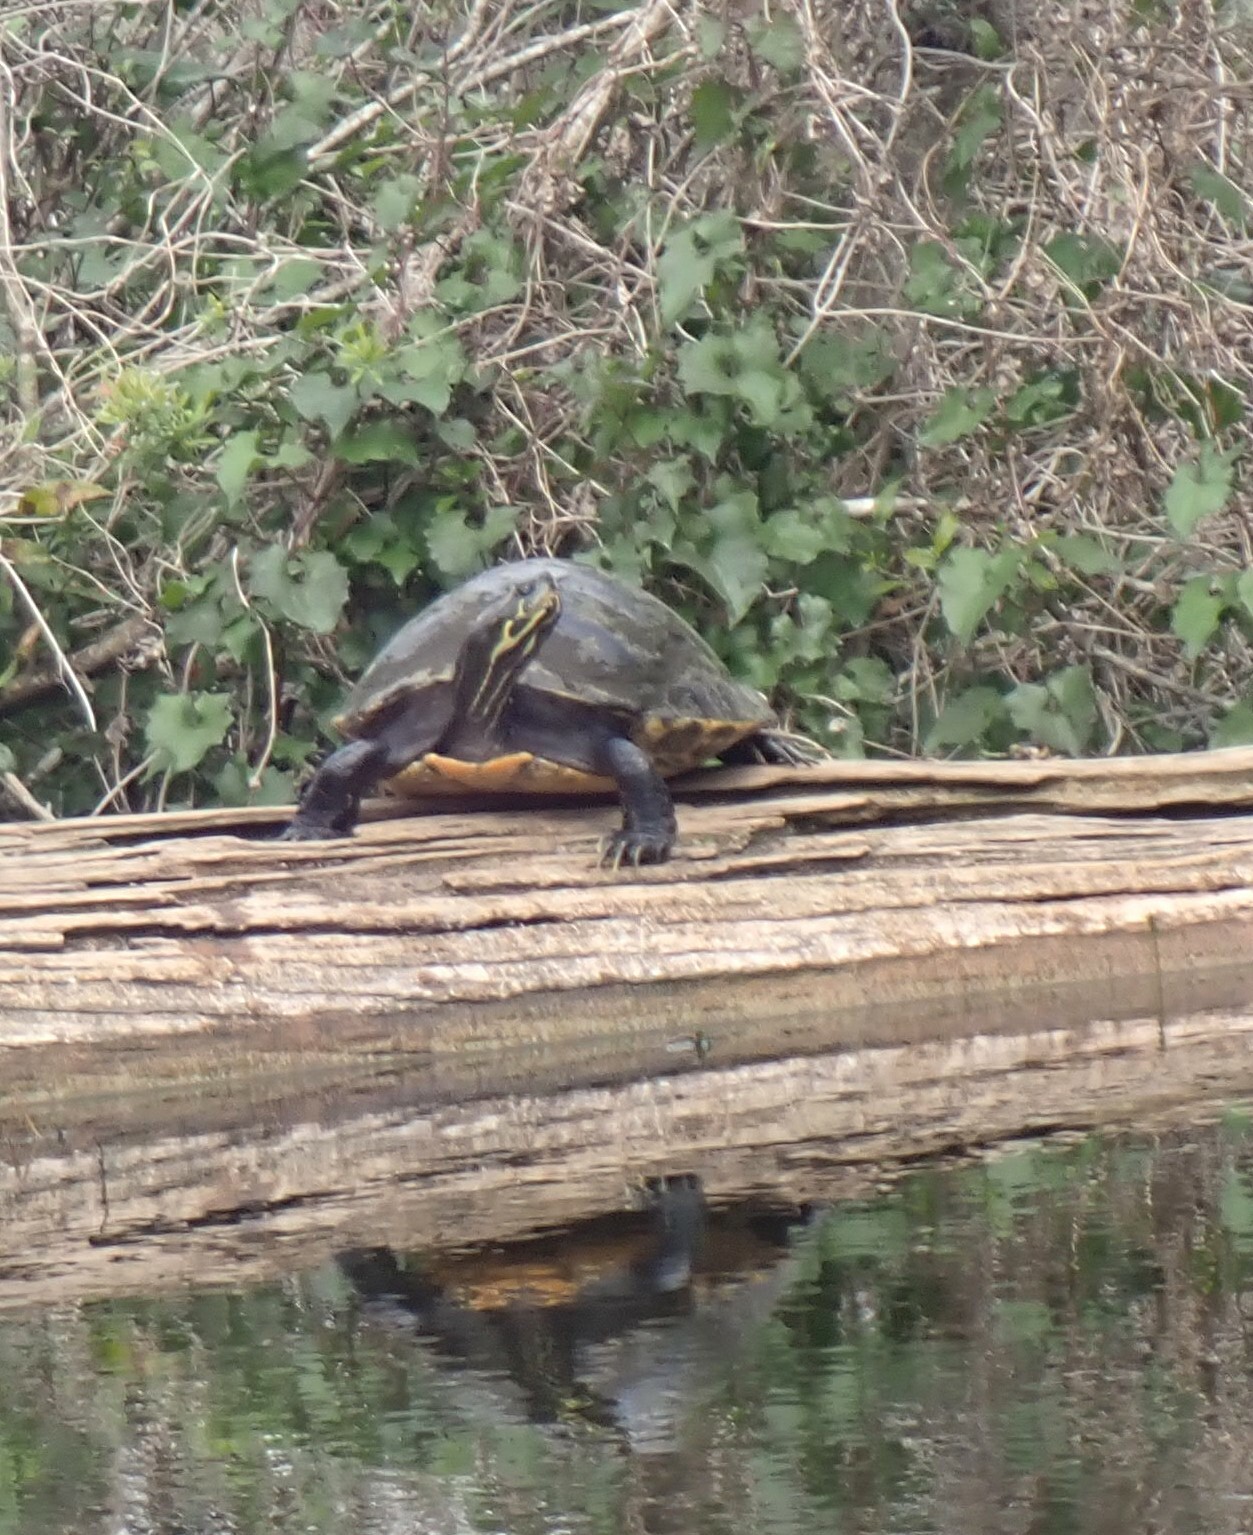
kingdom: Animalia
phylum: Chordata
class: Testudines
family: Emydidae
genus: Pseudemys
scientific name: Pseudemys concinna
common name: Eastern river cooter
